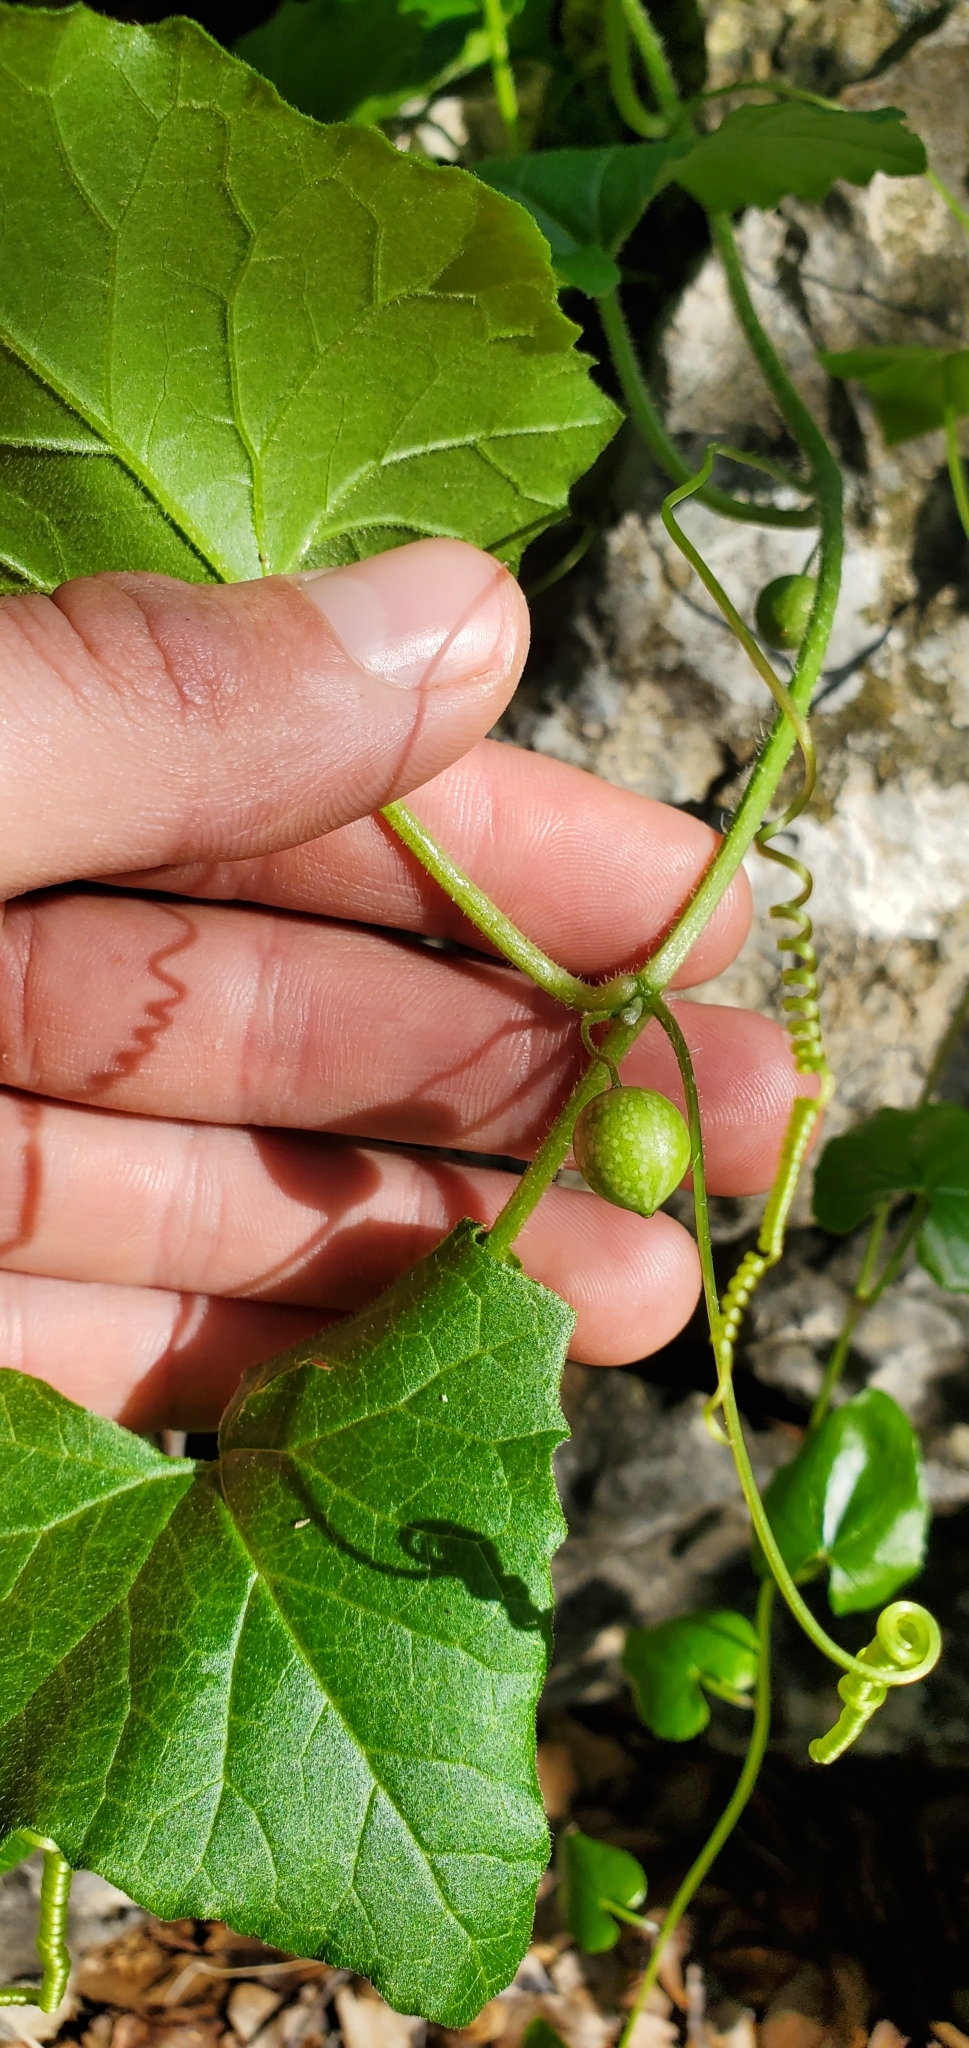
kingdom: Plantae
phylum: Tracheophyta
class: Magnoliopsida
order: Cucurbitales
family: Cucurbitaceae
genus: Bryonia
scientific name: Bryonia syriaca
